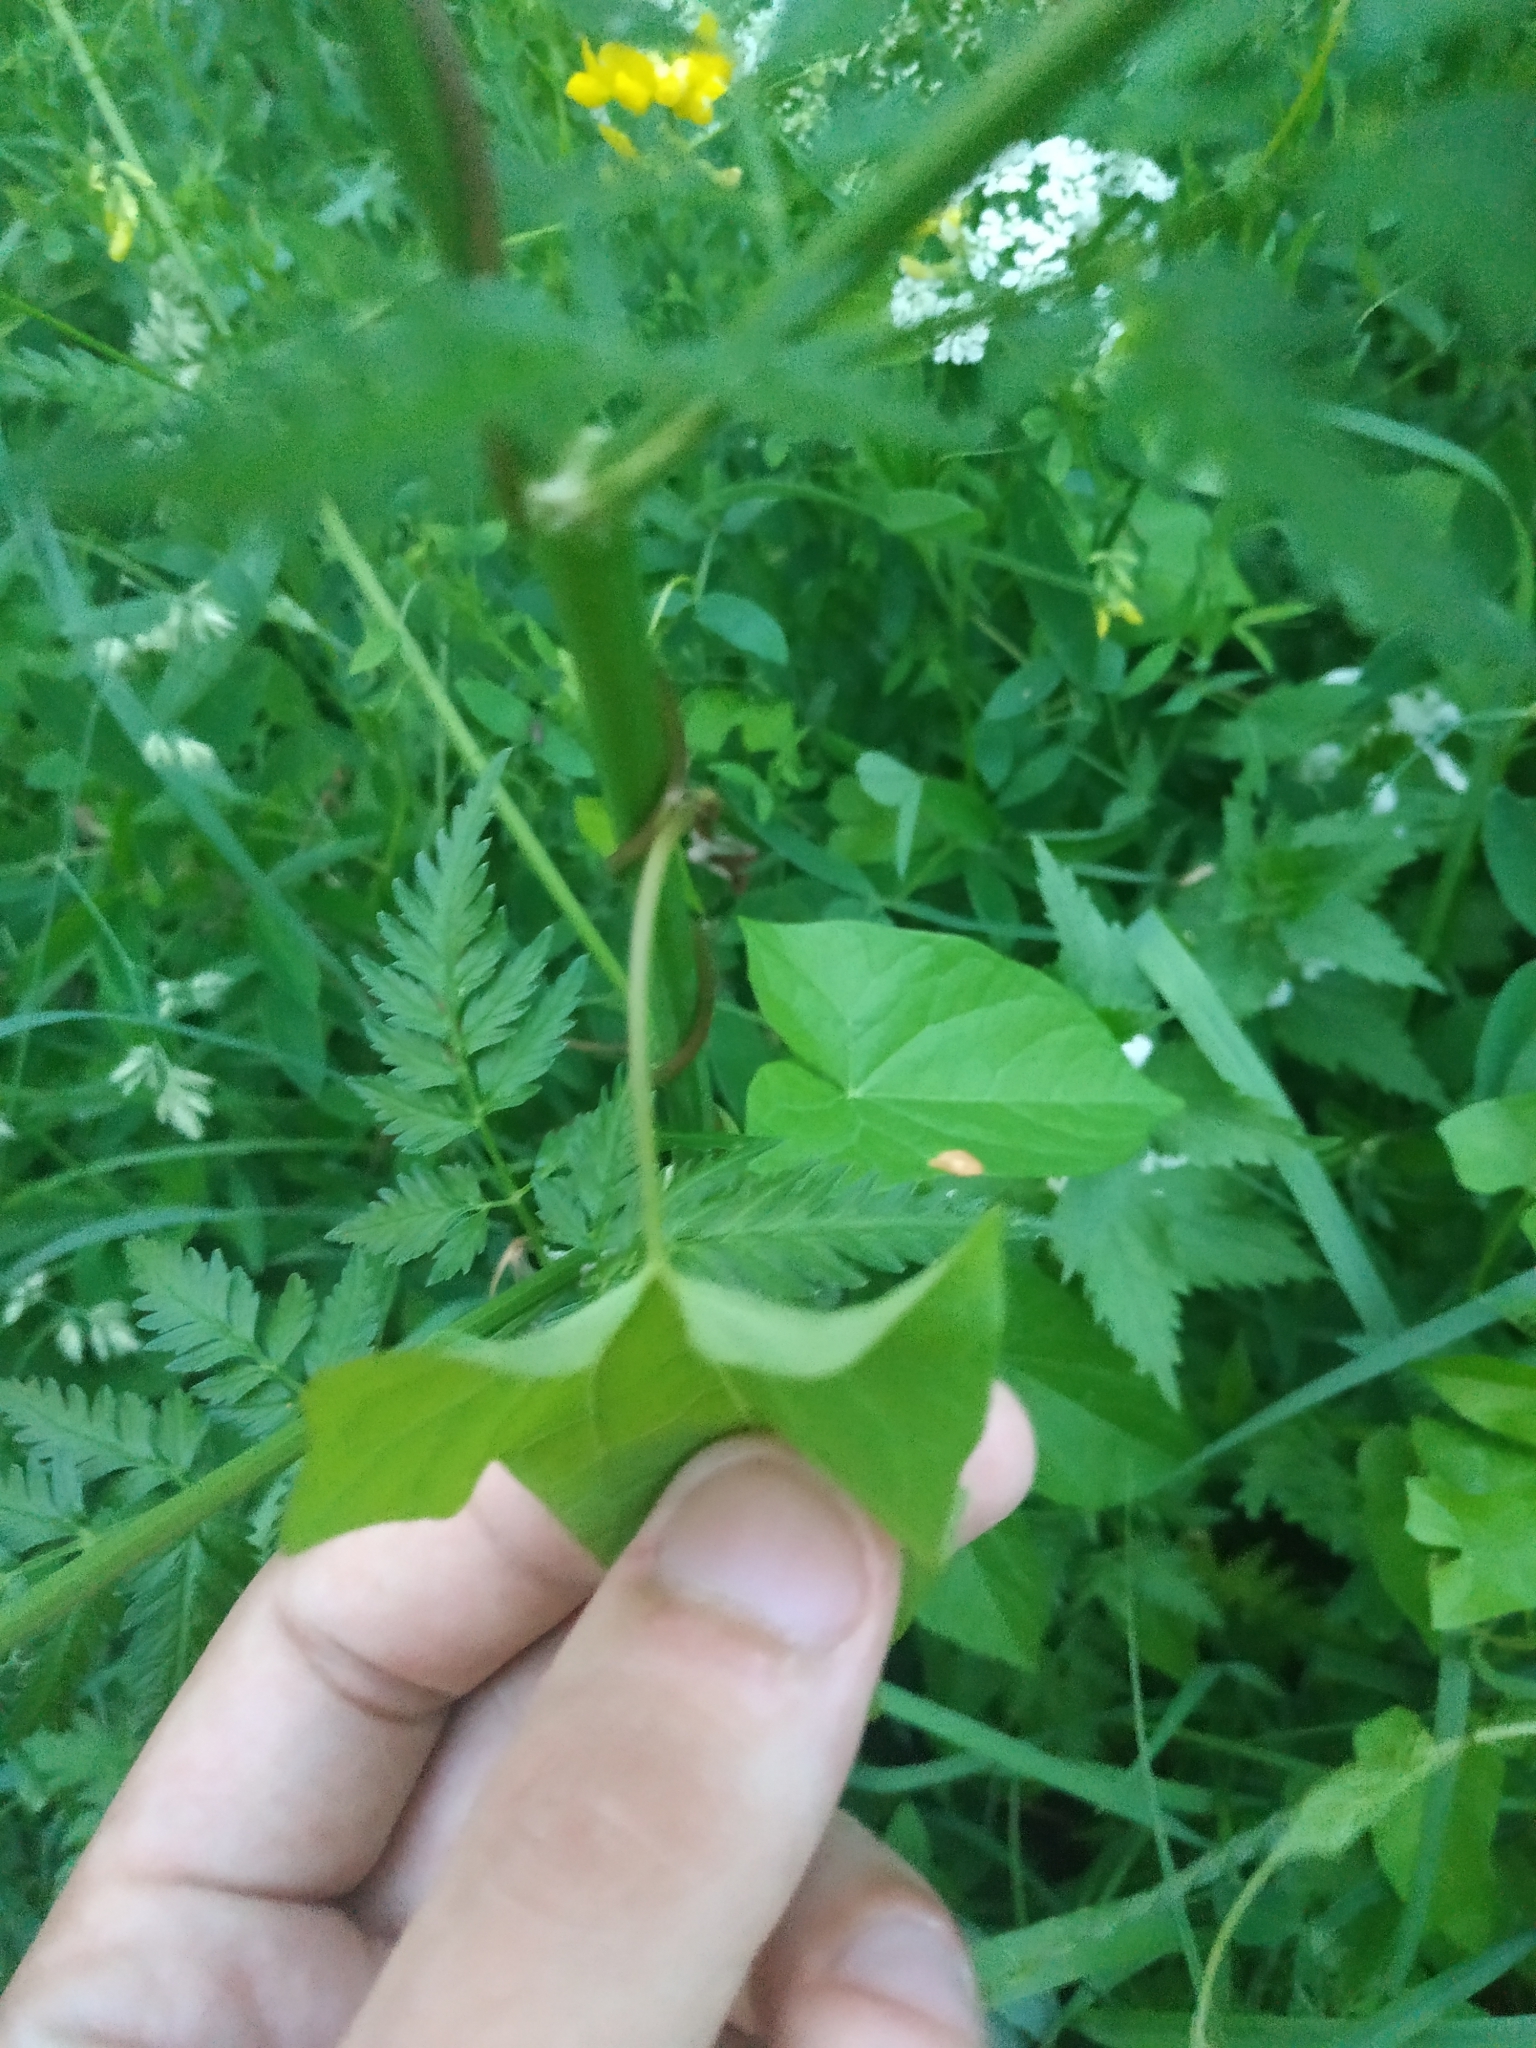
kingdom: Plantae
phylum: Tracheophyta
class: Magnoliopsida
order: Solanales
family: Convolvulaceae
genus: Calystegia
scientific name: Calystegia sepium
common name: Hedge bindweed
